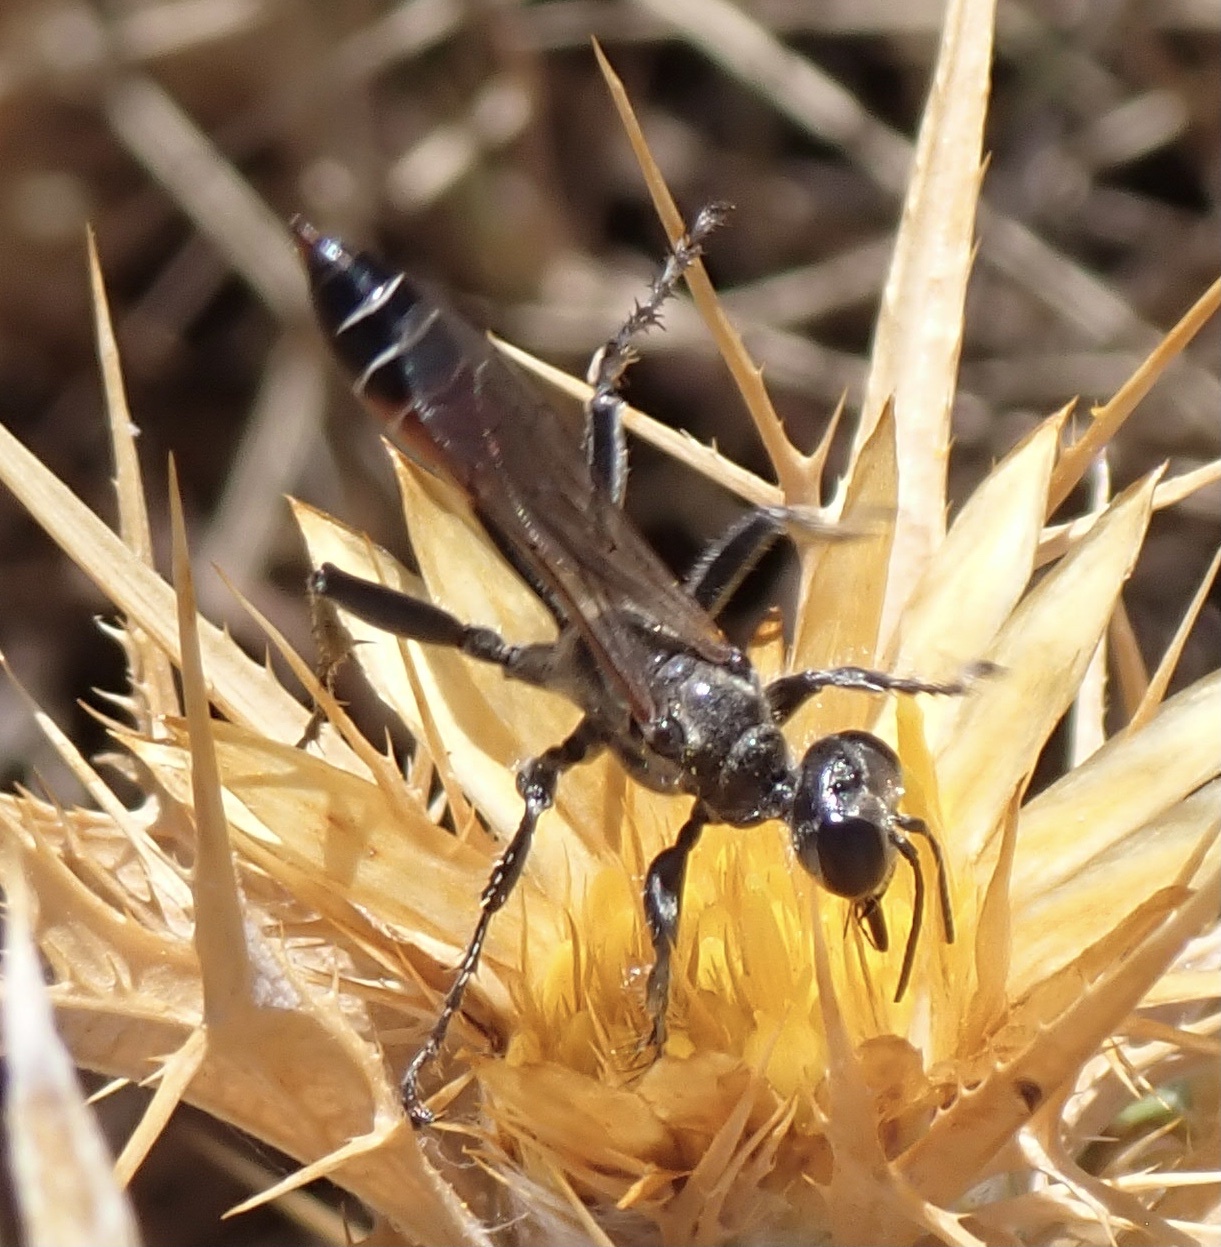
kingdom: Animalia
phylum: Arthropoda
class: Insecta
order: Hymenoptera
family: Sphecidae
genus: Prionyx
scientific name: Prionyx kirbii
